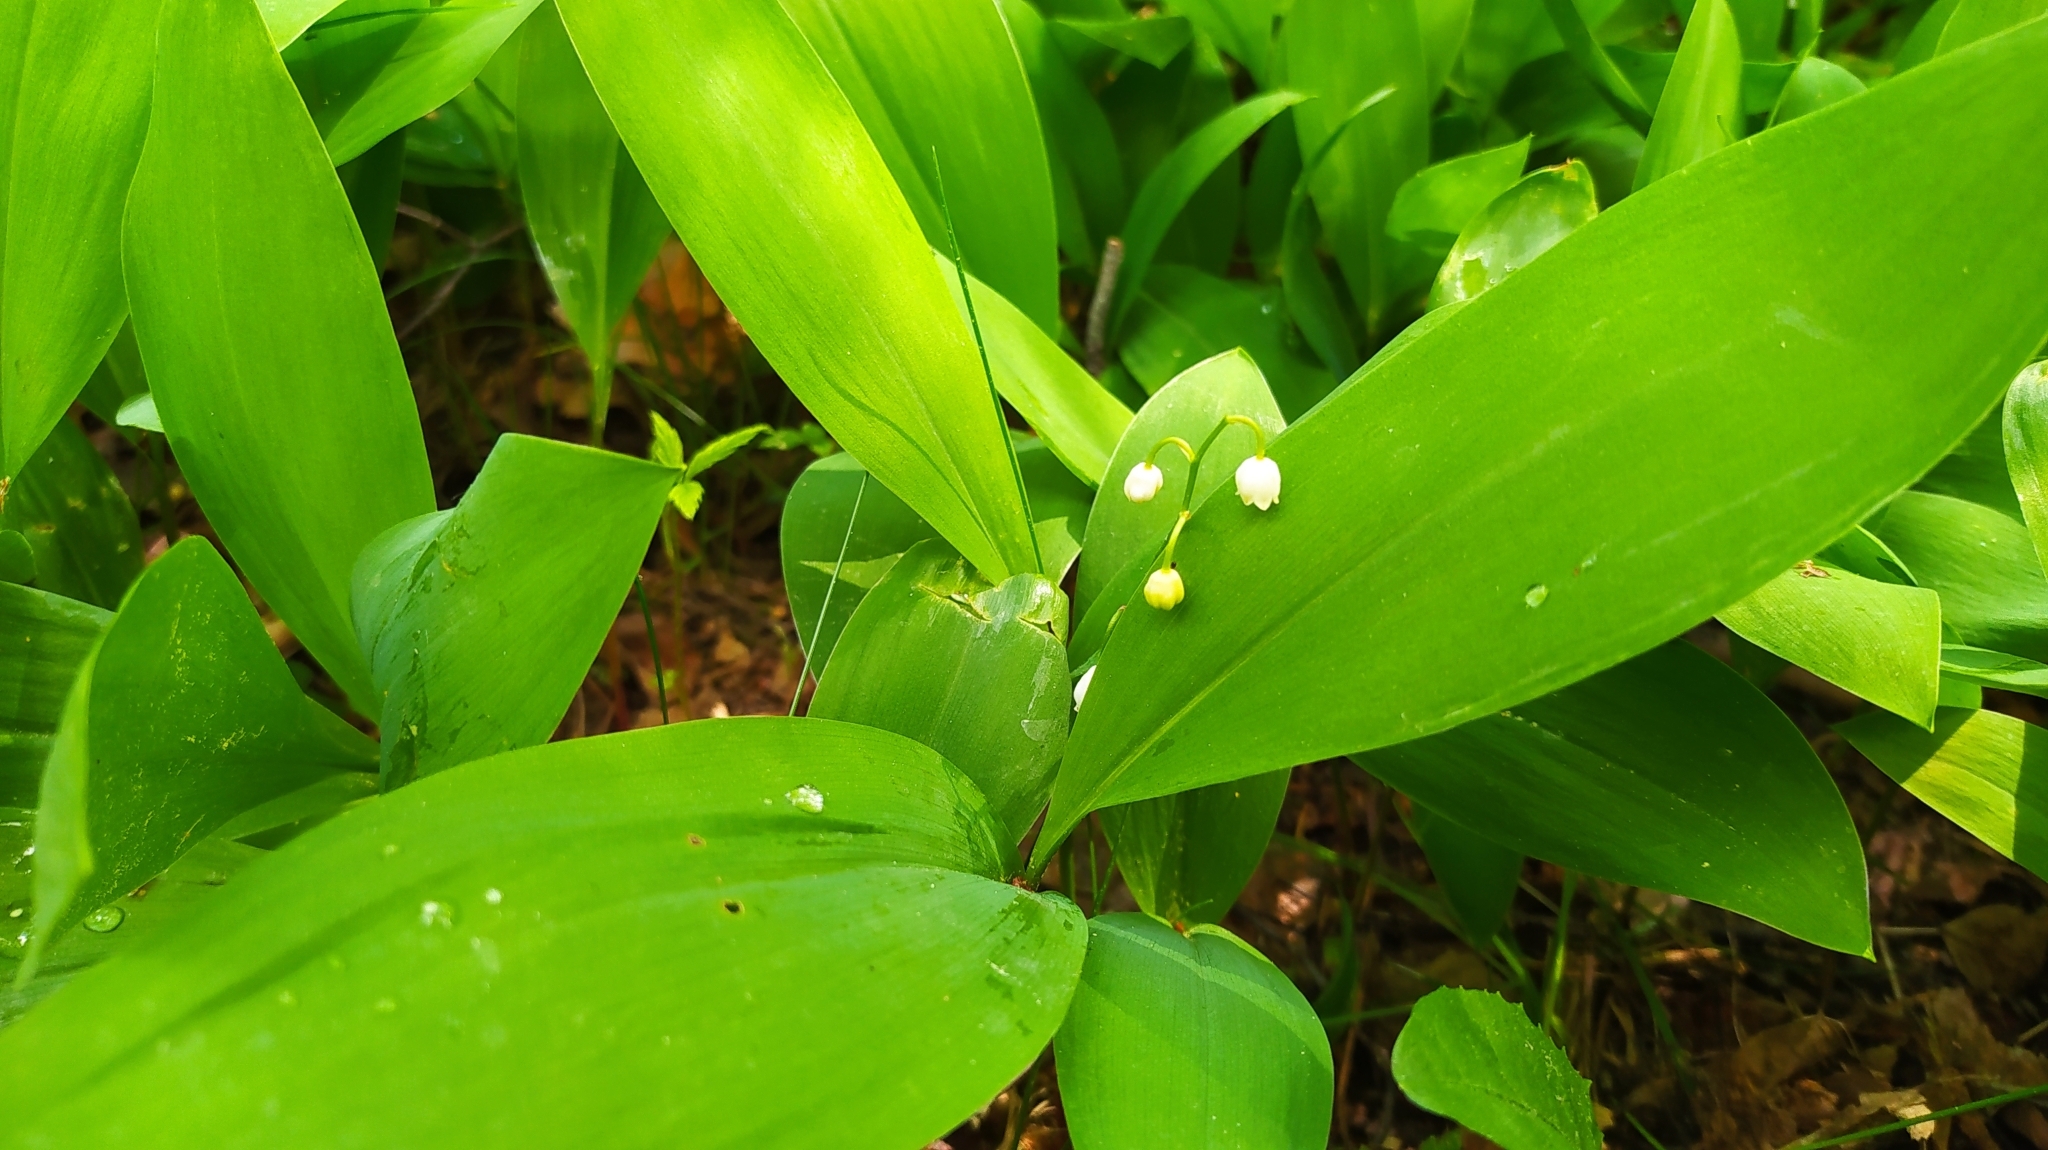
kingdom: Plantae
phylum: Tracheophyta
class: Liliopsida
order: Asparagales
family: Asparagaceae
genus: Convallaria
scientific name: Convallaria majalis
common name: Lily-of-the-valley
